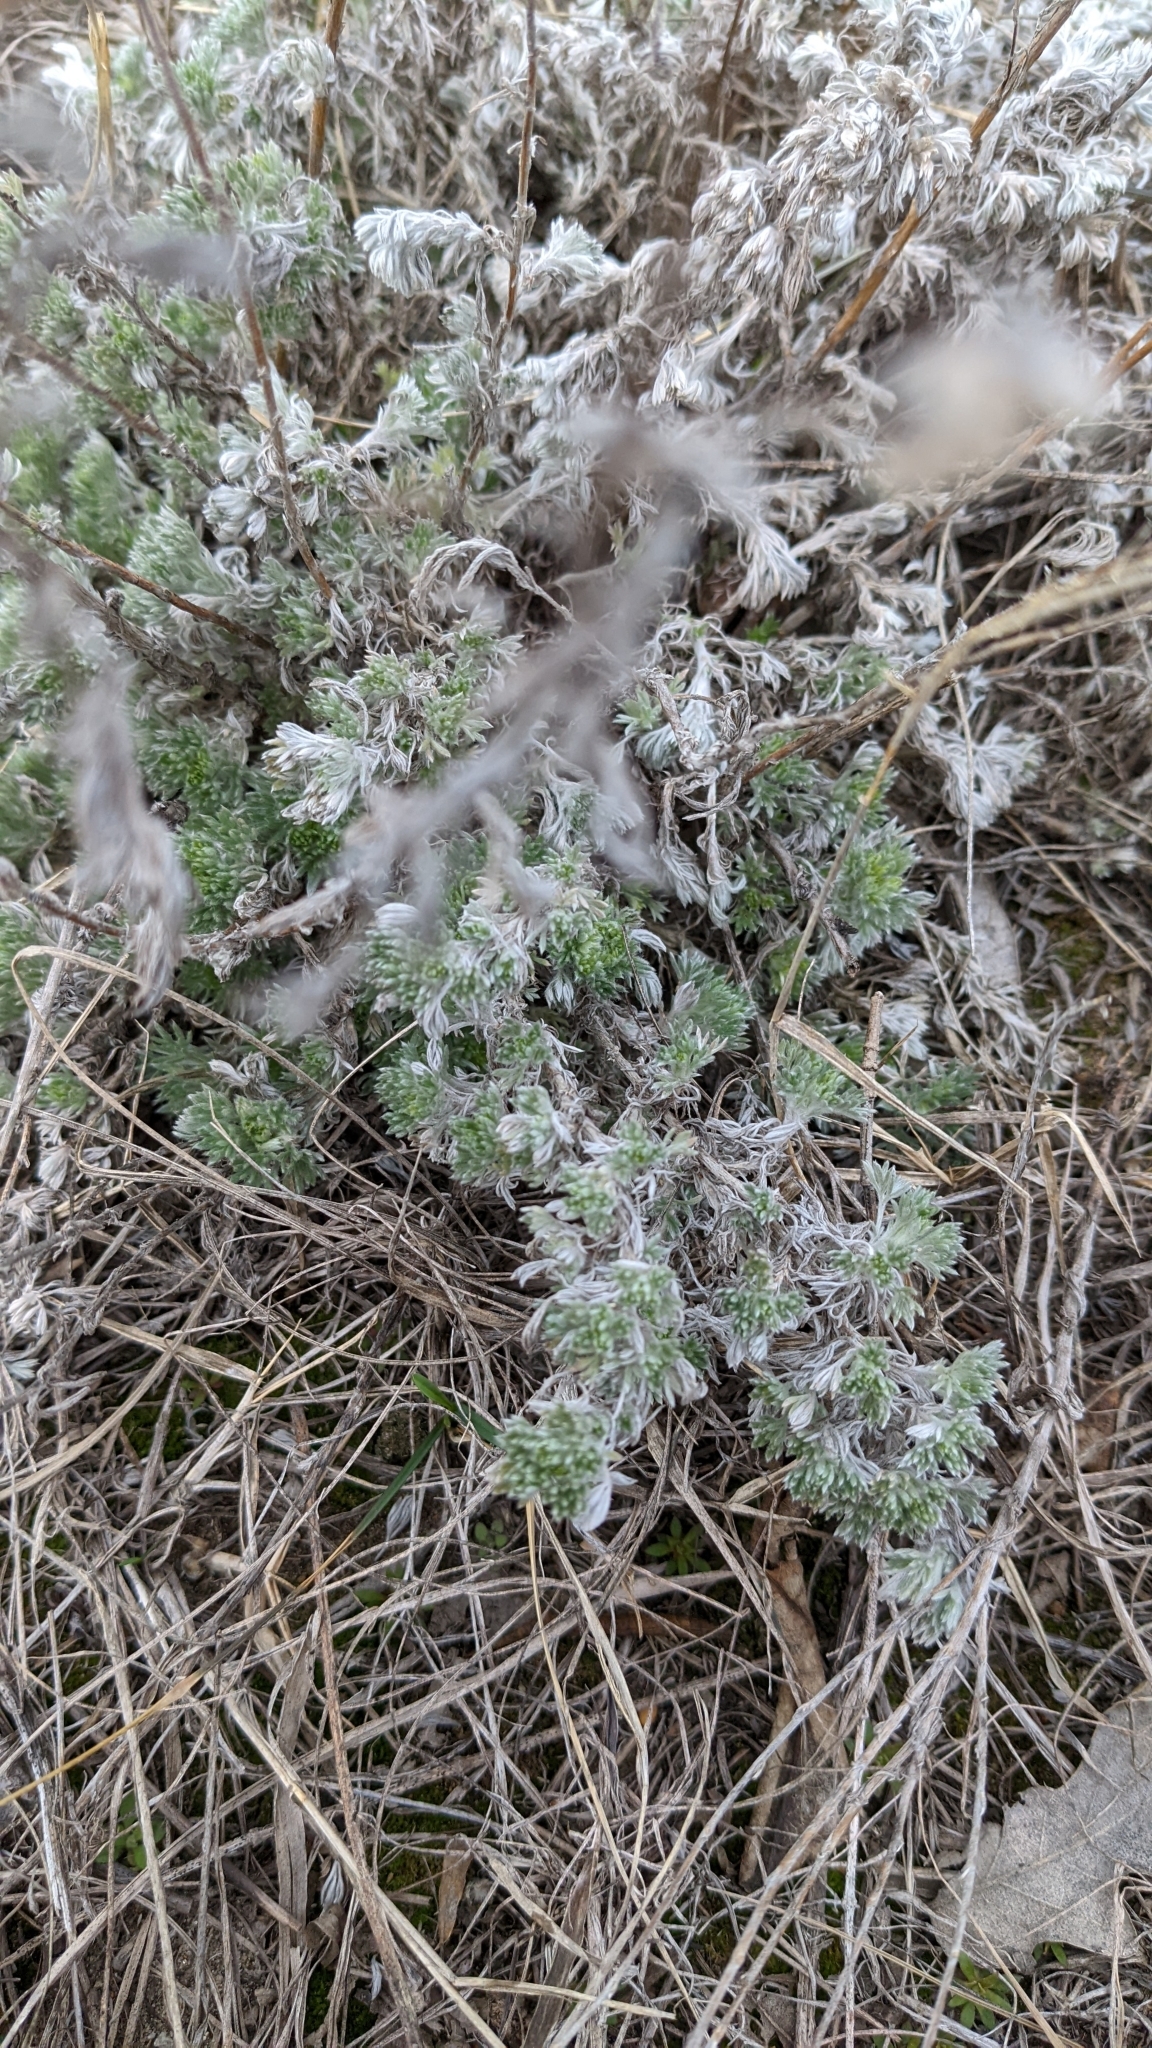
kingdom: Plantae
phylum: Tracheophyta
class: Magnoliopsida
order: Asterales
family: Asteraceae
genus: Artemisia
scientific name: Artemisia frigida
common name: Prairie sagewort
